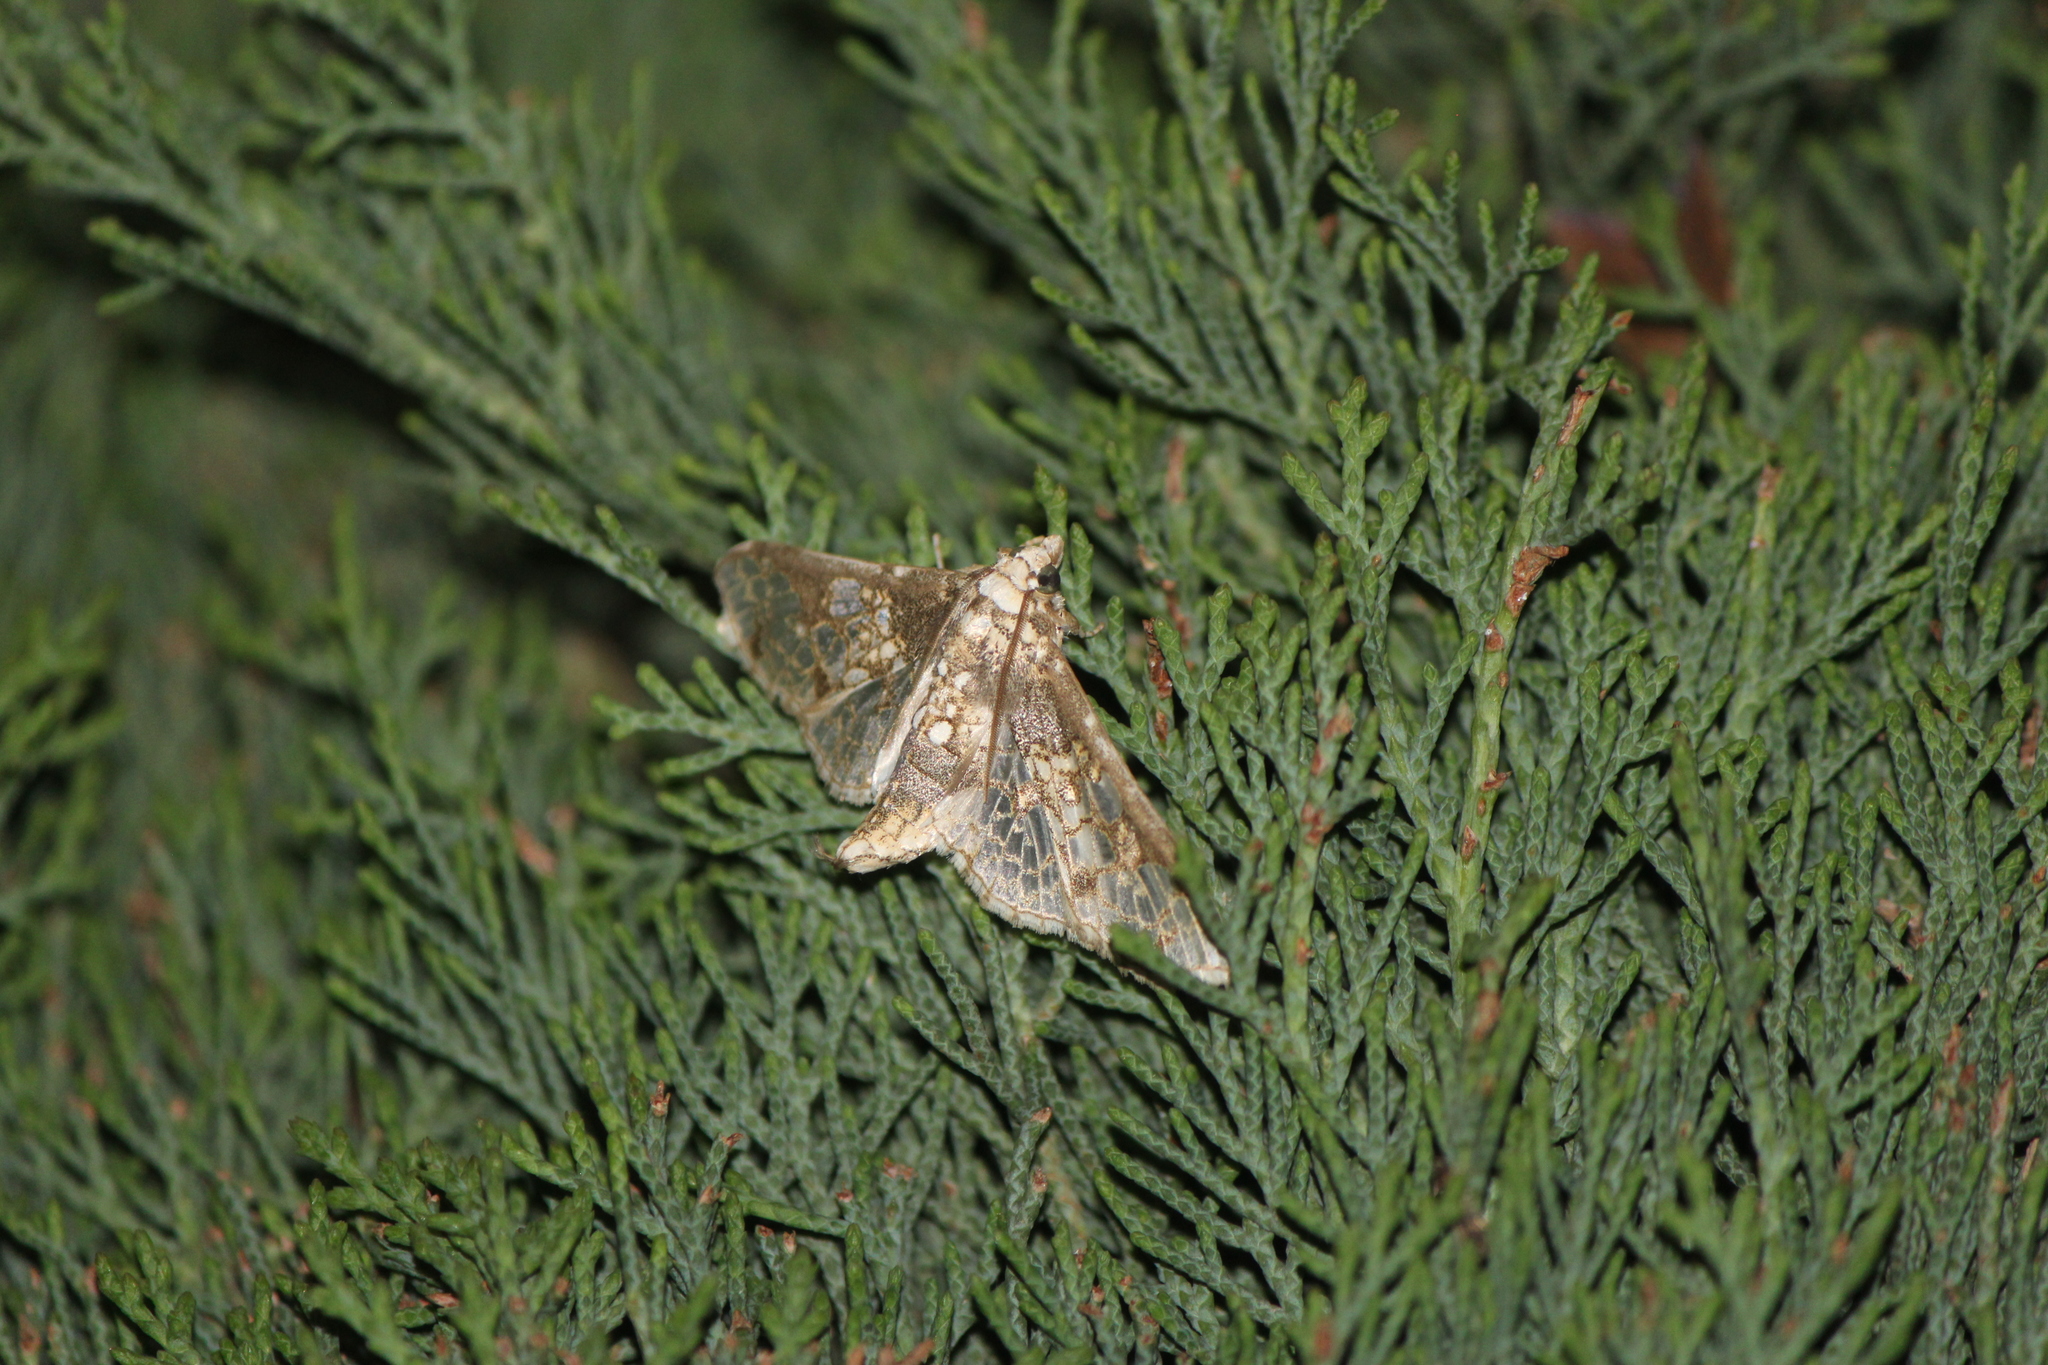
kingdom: Animalia
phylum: Arthropoda
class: Insecta
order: Lepidoptera
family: Crambidae
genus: Megastes
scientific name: Megastes praxiteles
